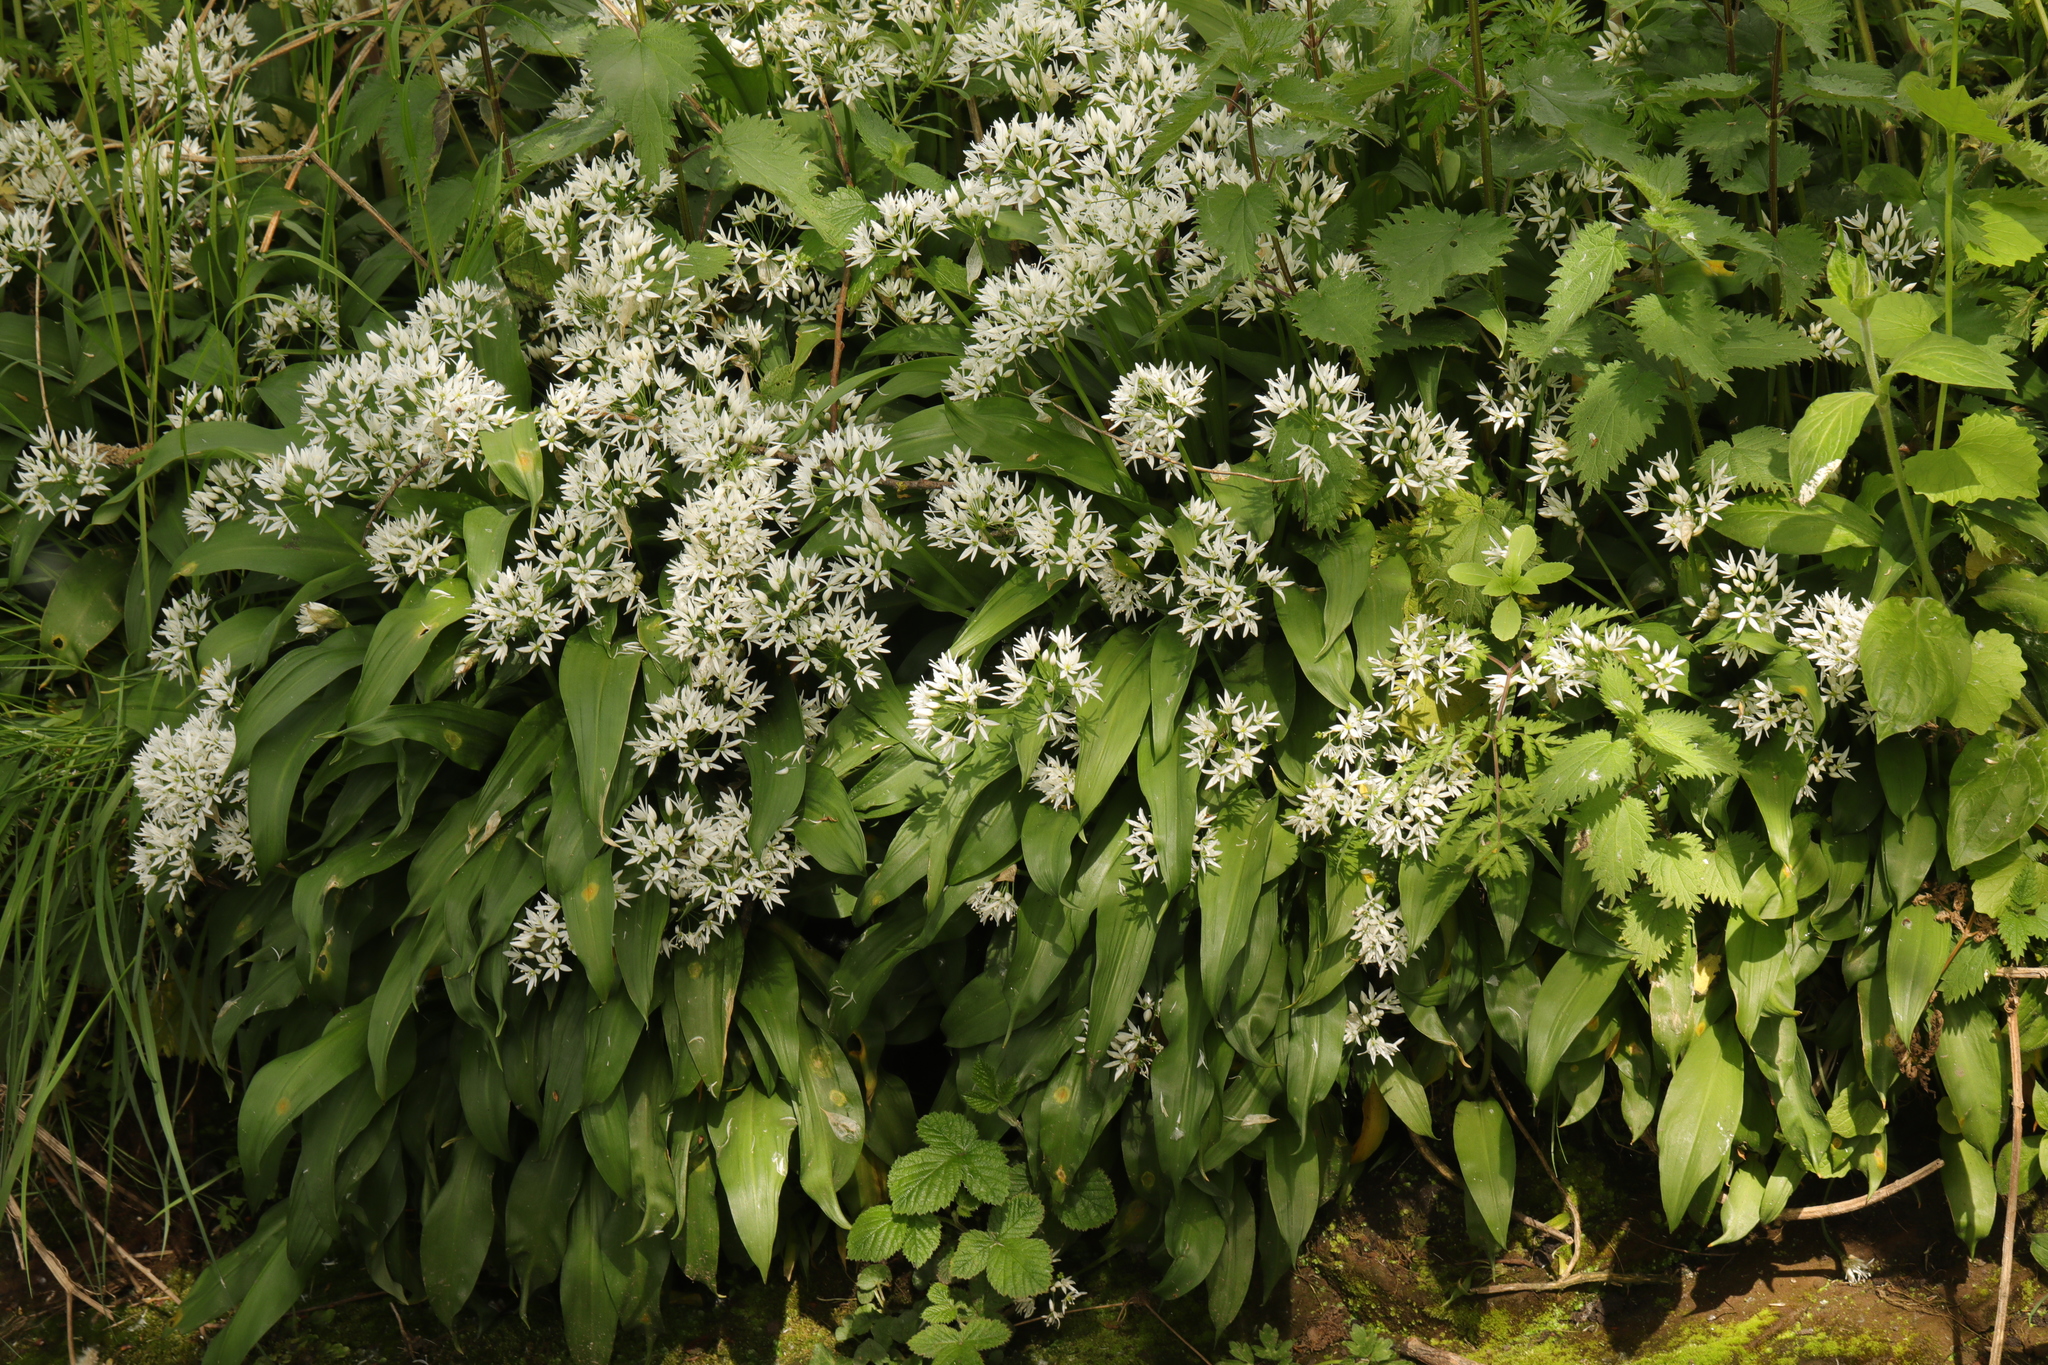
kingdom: Plantae
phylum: Tracheophyta
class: Liliopsida
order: Asparagales
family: Amaryllidaceae
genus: Allium
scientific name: Allium ursinum
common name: Ramsons
